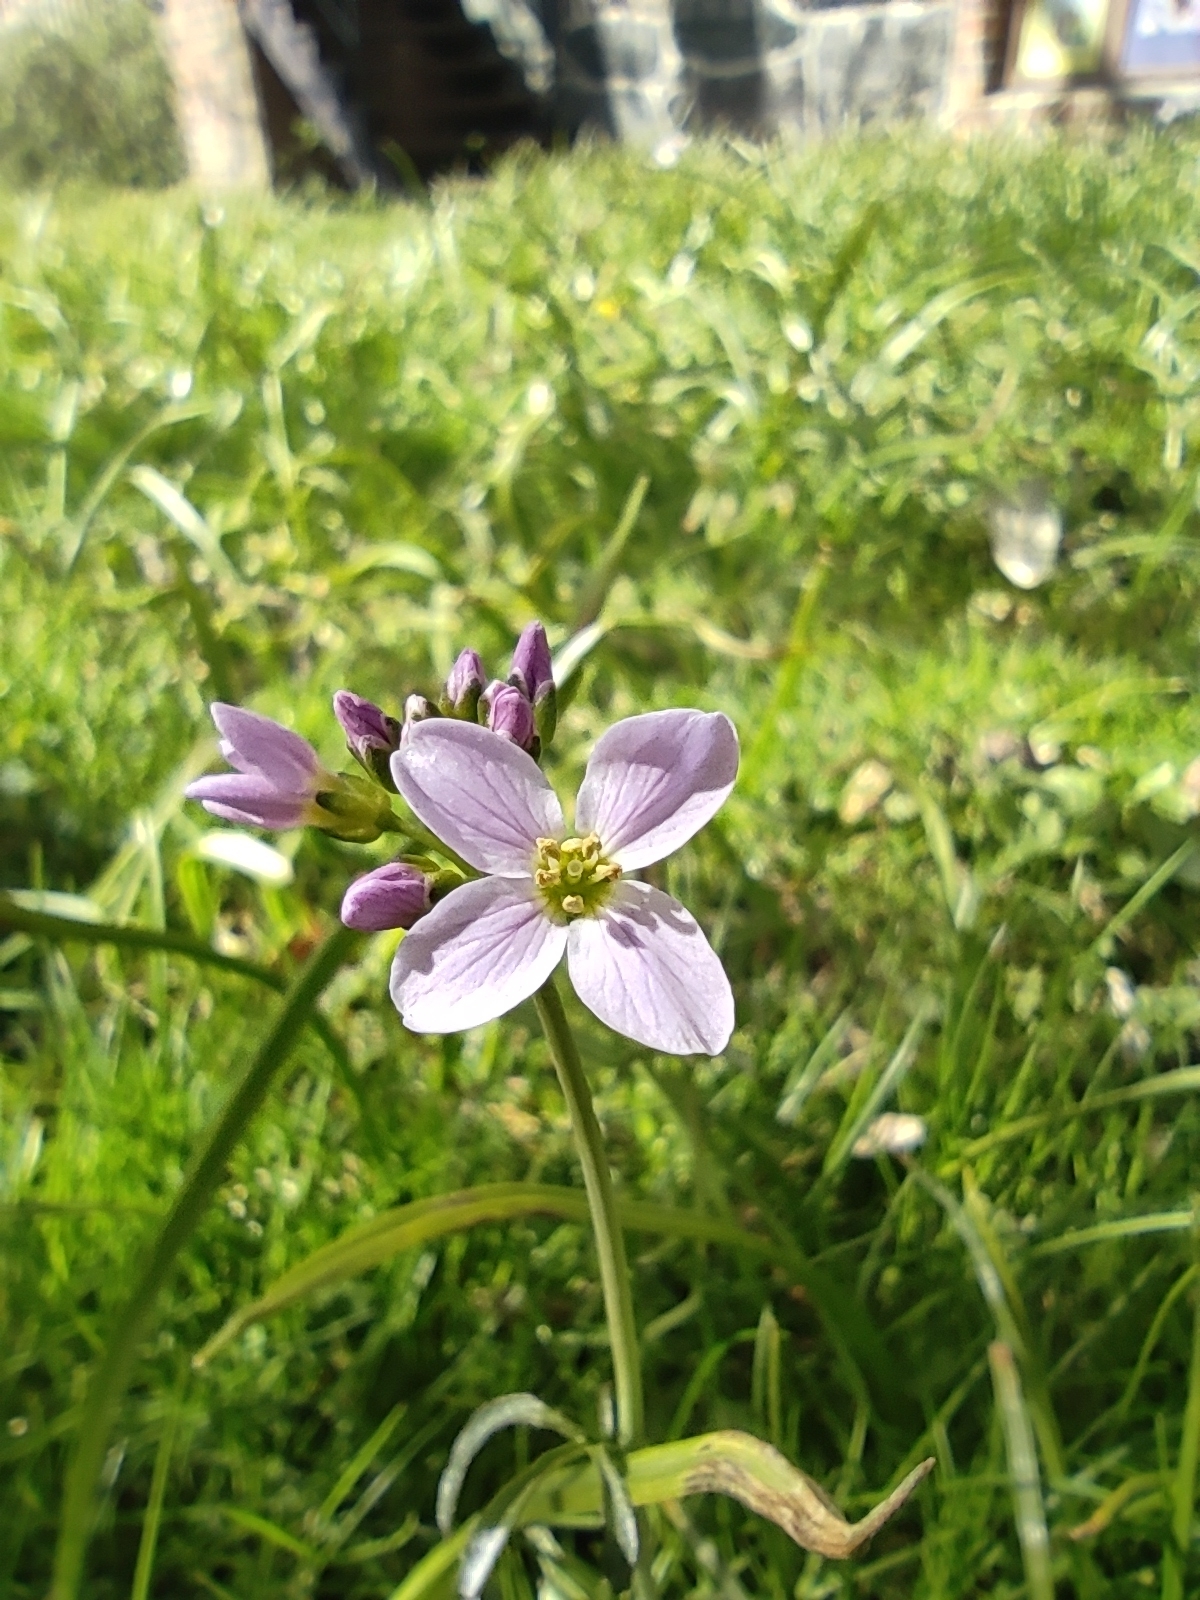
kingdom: Plantae
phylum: Tracheophyta
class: Magnoliopsida
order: Brassicales
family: Brassicaceae
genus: Cardamine
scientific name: Cardamine pratensis
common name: Cuckoo flower
